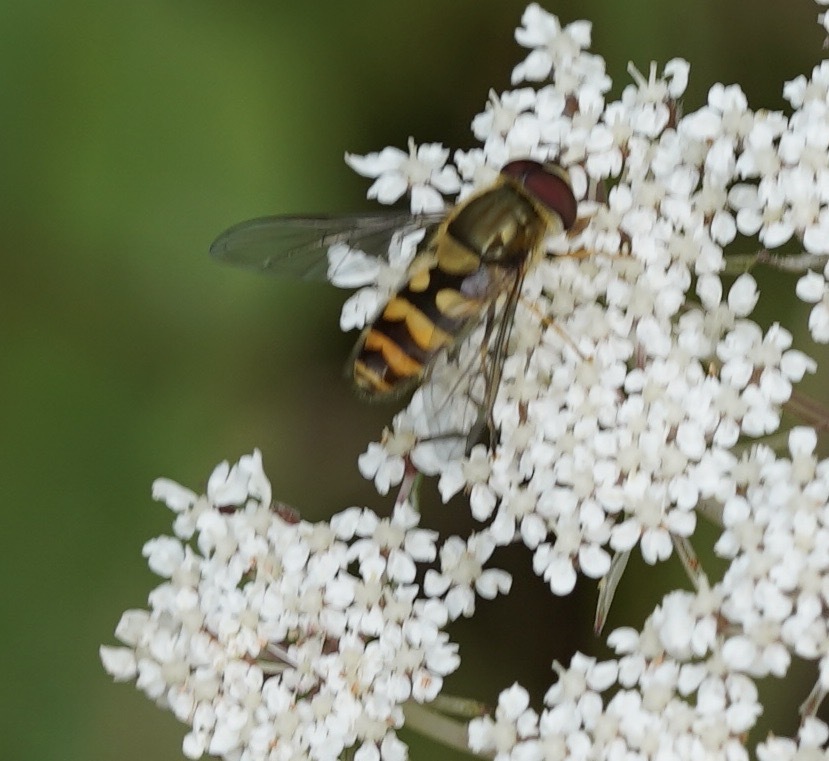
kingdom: Animalia
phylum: Arthropoda
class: Insecta
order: Diptera
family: Syrphidae
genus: Syrphus
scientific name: Syrphus
